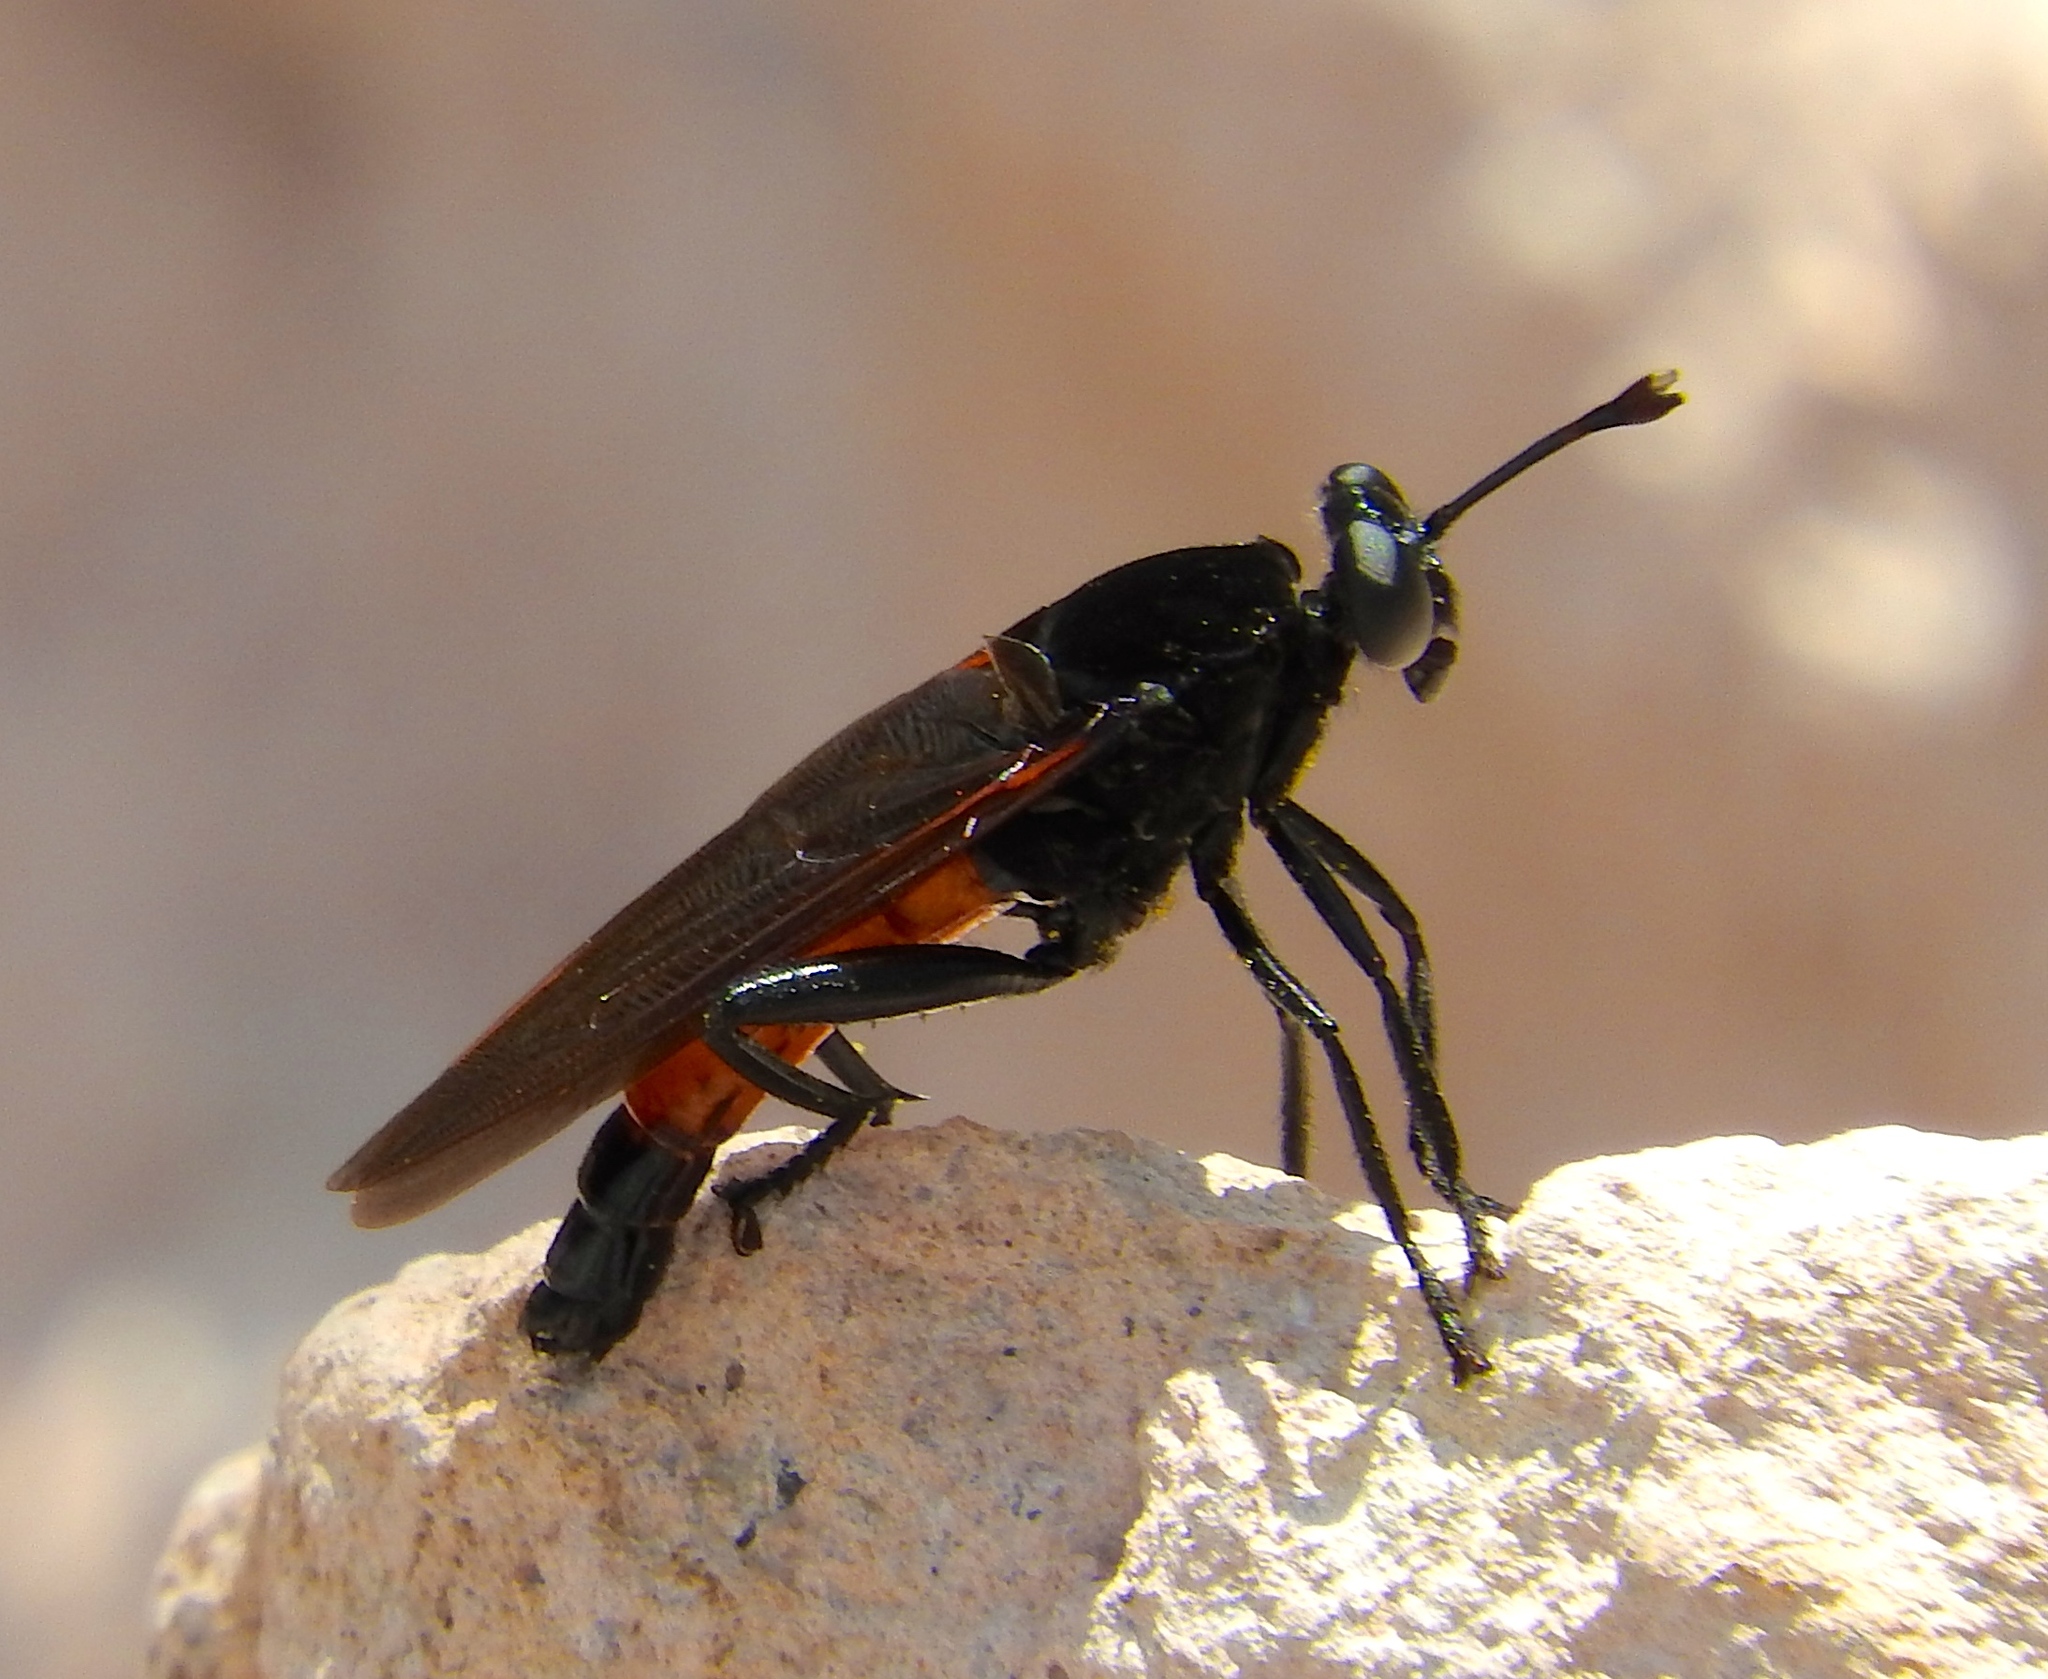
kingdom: Animalia
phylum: Arthropoda
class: Insecta
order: Diptera
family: Mydidae
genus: Mydas
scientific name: Mydas
